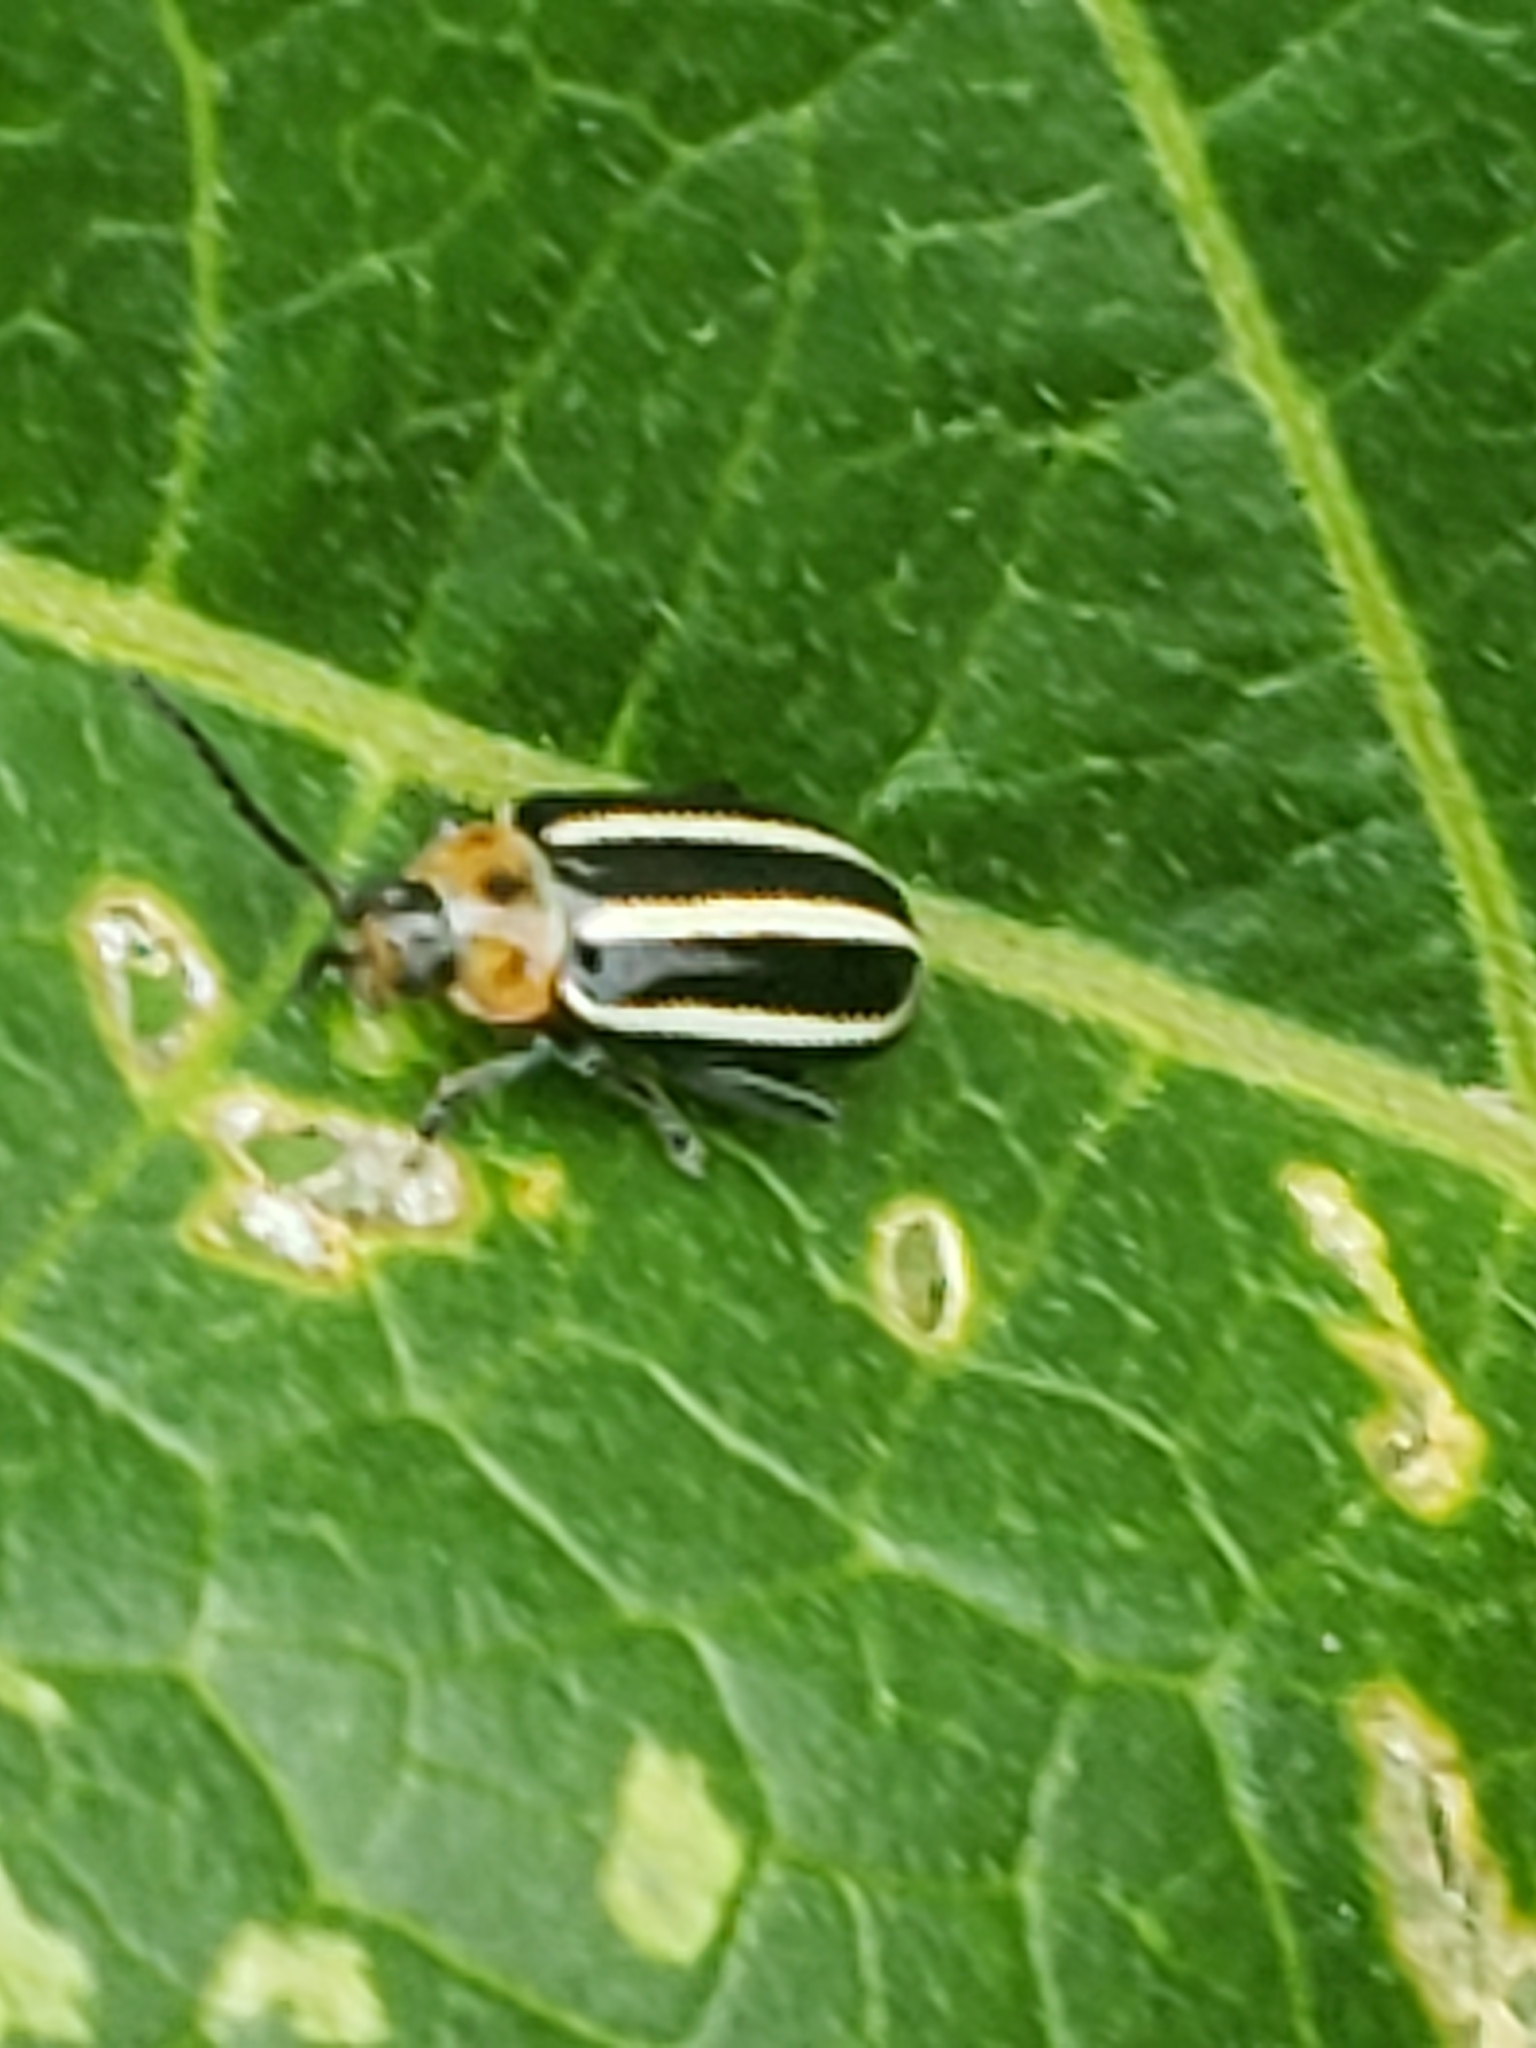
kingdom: Animalia
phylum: Arthropoda
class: Insecta
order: Coleoptera
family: Chrysomelidae
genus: Disonycha
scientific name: Disonycha glabrata
